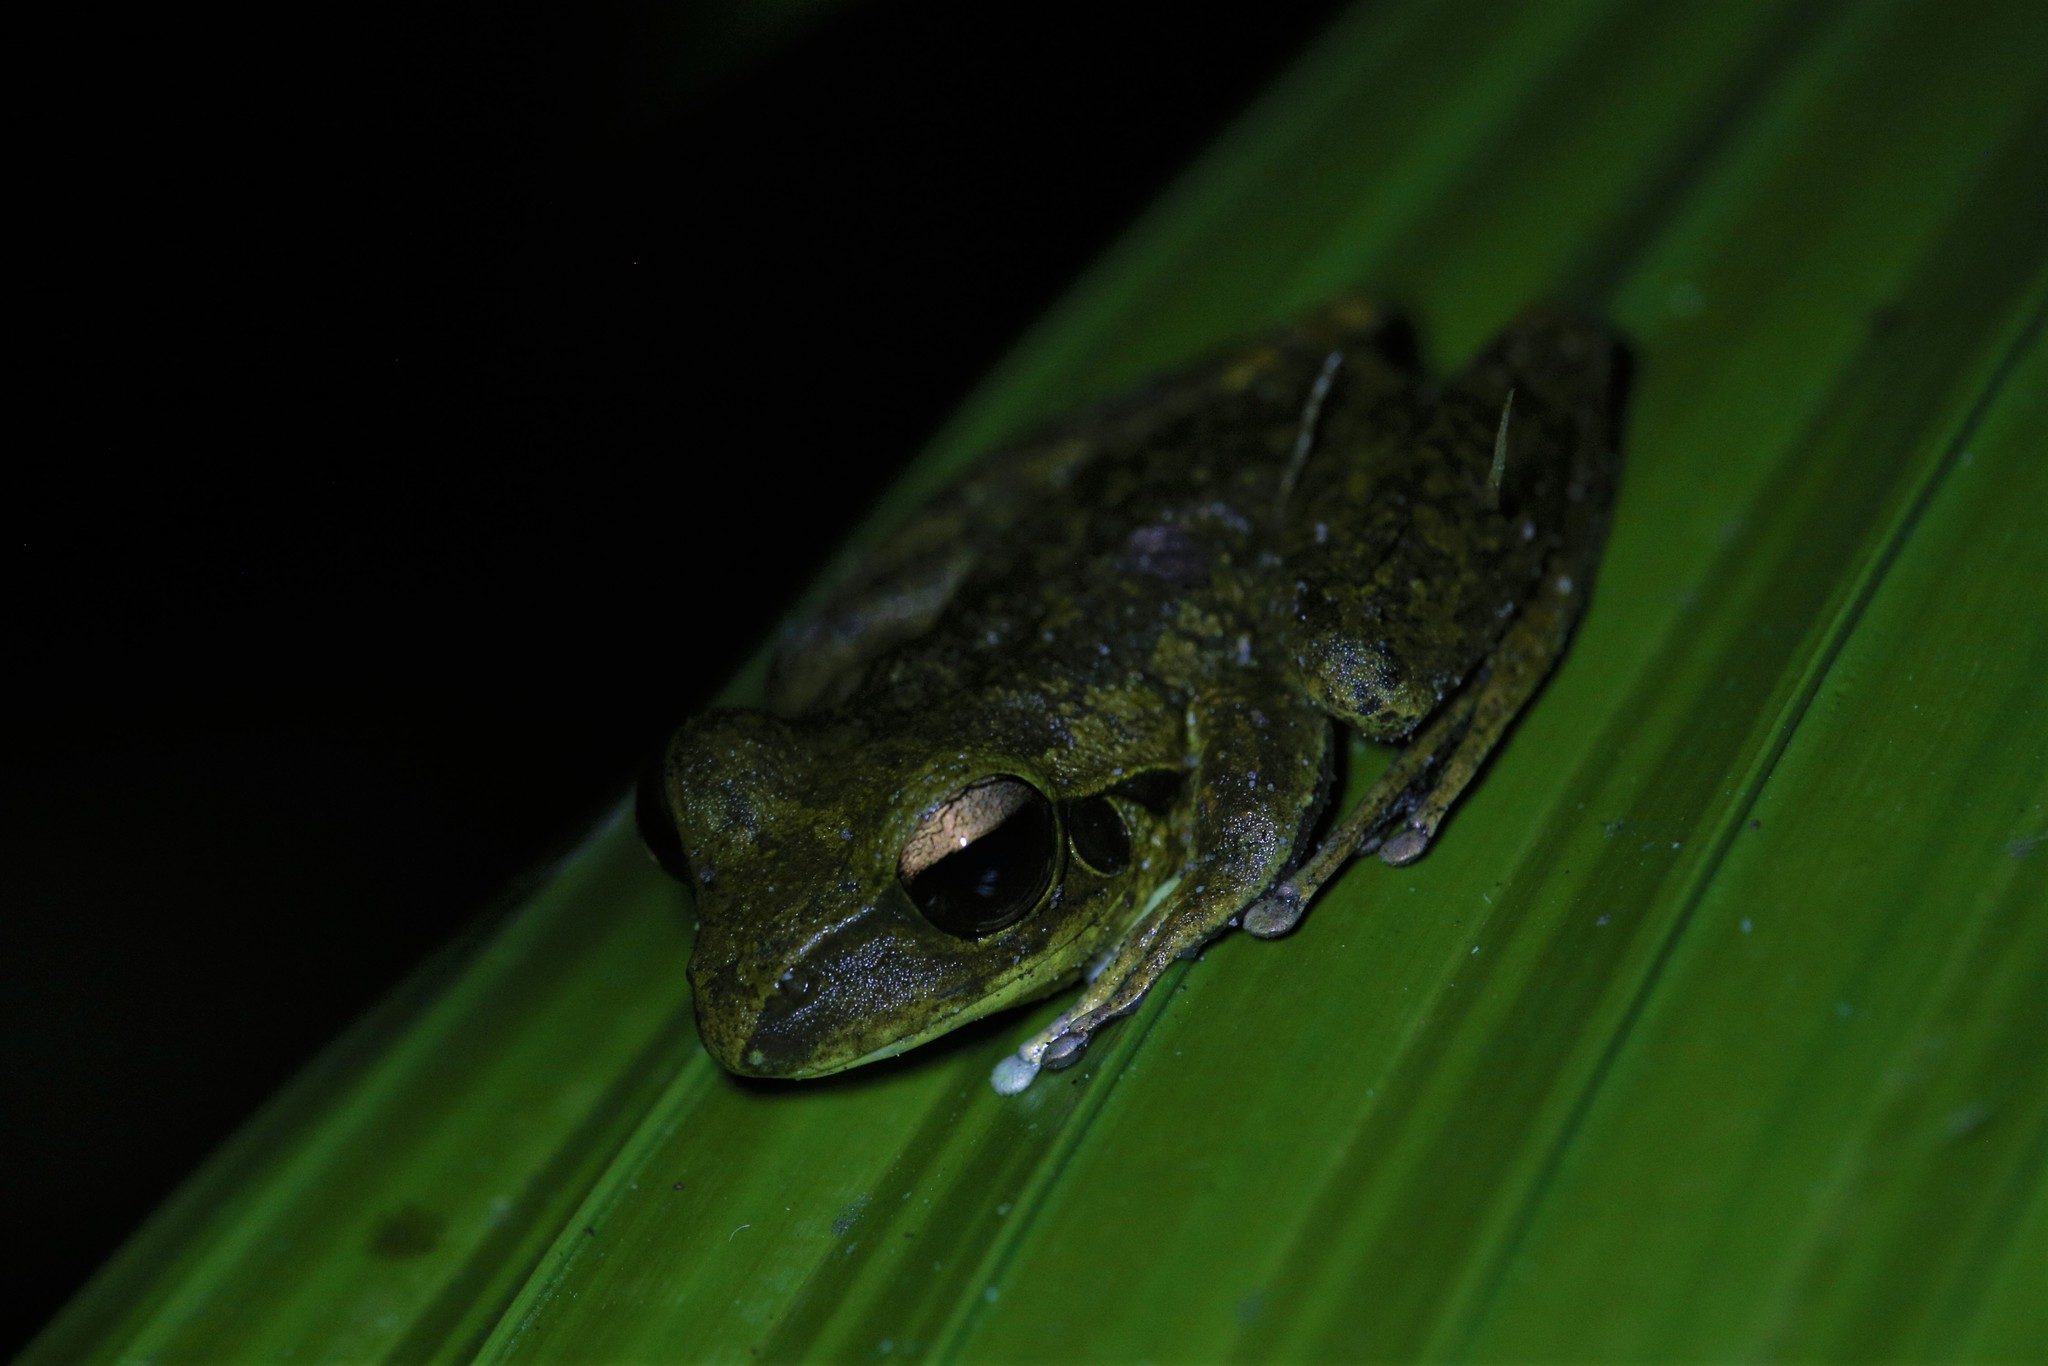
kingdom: Animalia
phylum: Chordata
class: Amphibia
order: Anura
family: Pelodryadidae
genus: Ranoidea
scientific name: Ranoidea jungguy
